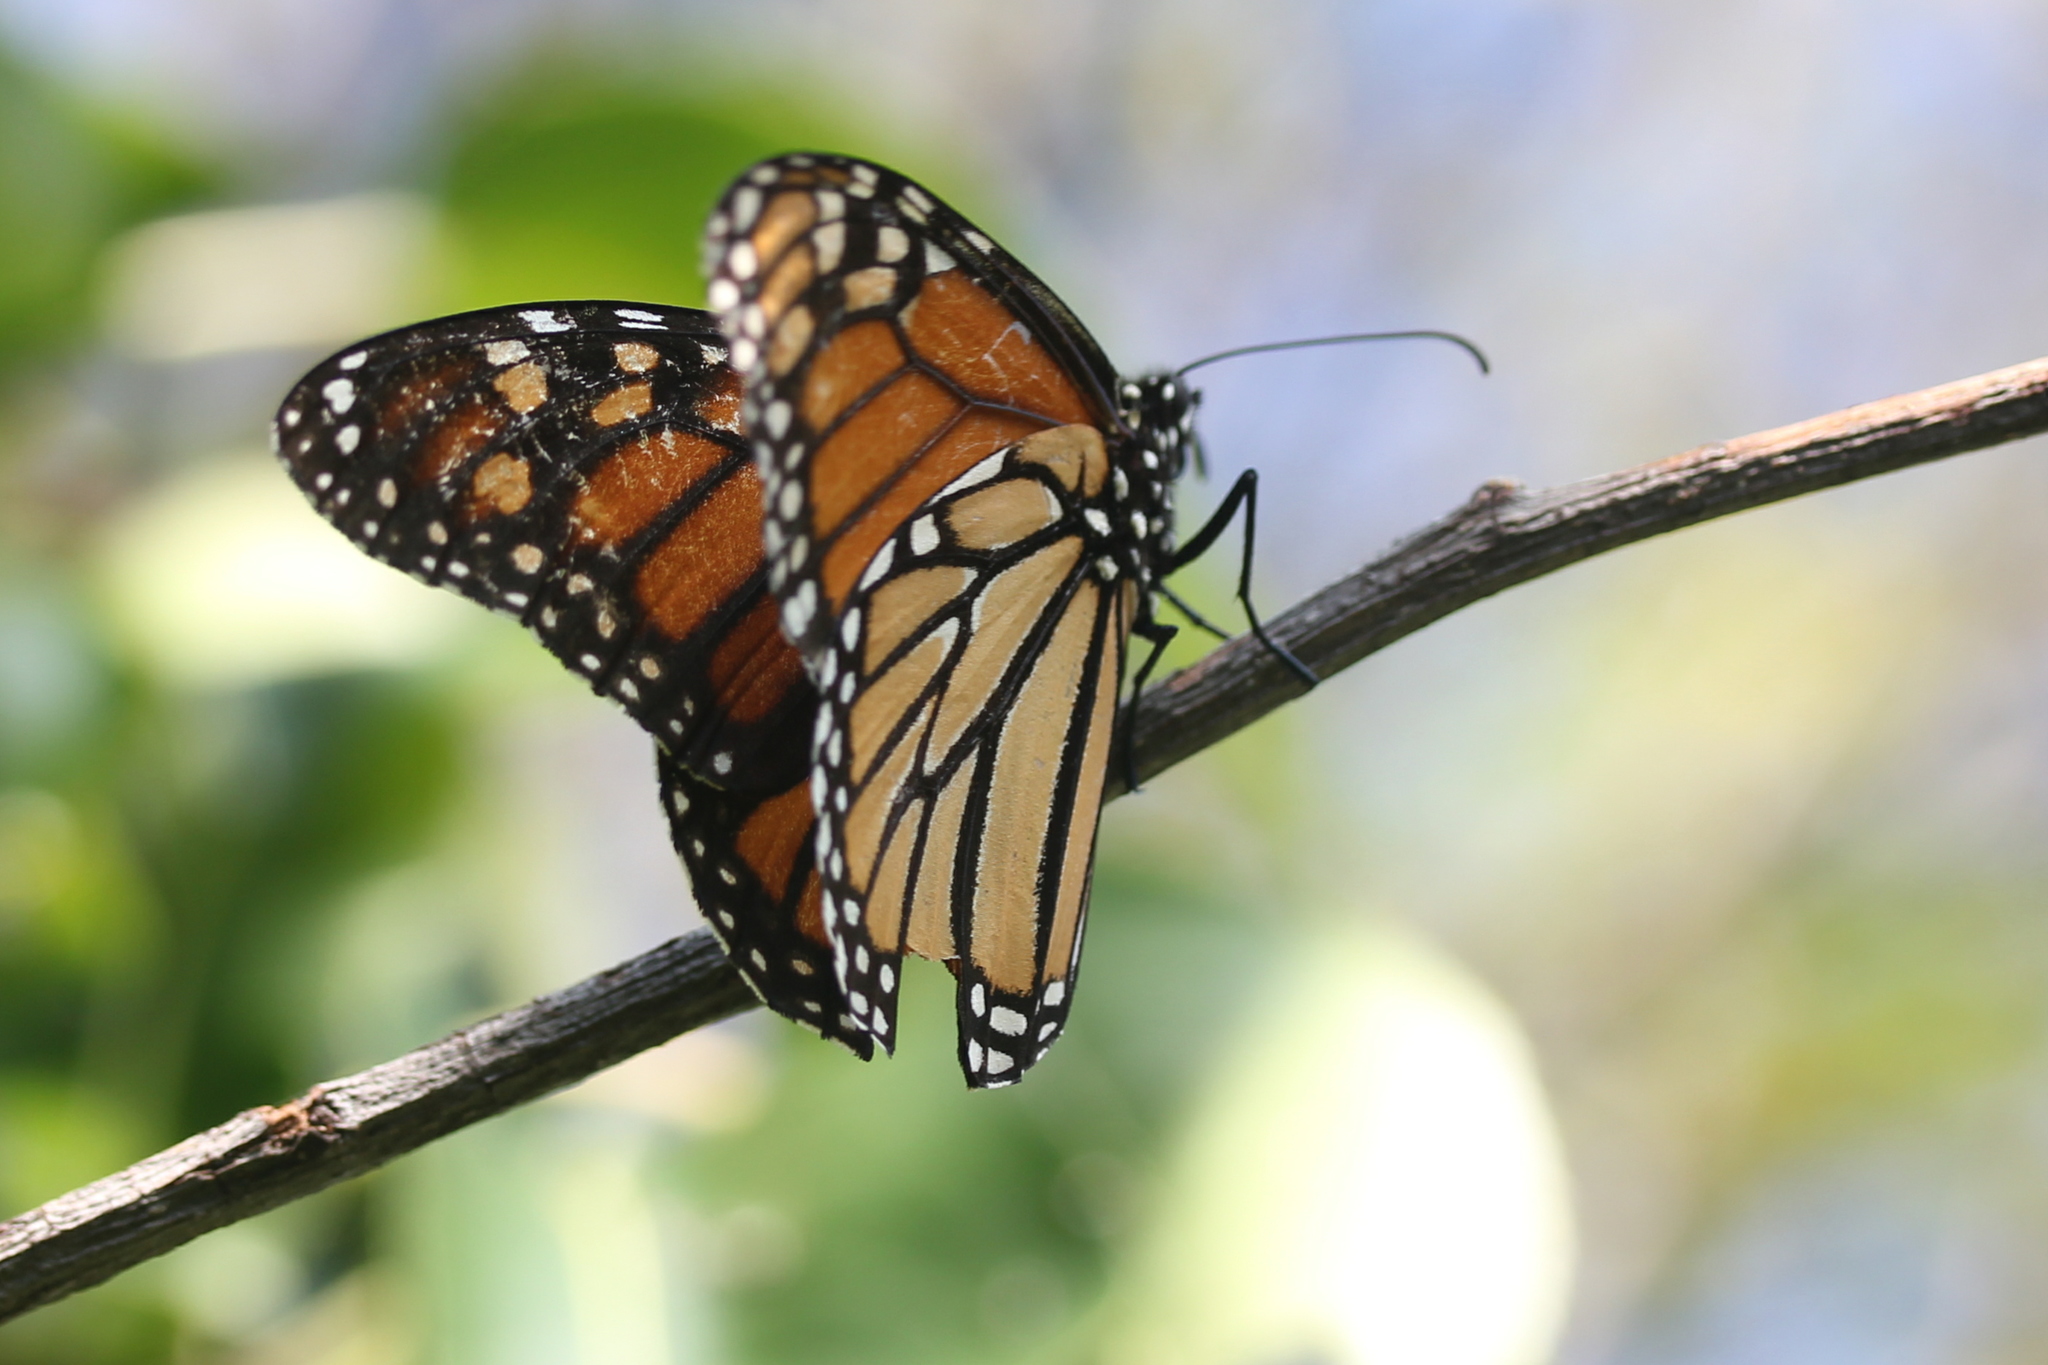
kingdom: Animalia
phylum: Arthropoda
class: Insecta
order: Lepidoptera
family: Nymphalidae
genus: Danaus
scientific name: Danaus plexippus
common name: Monarch
